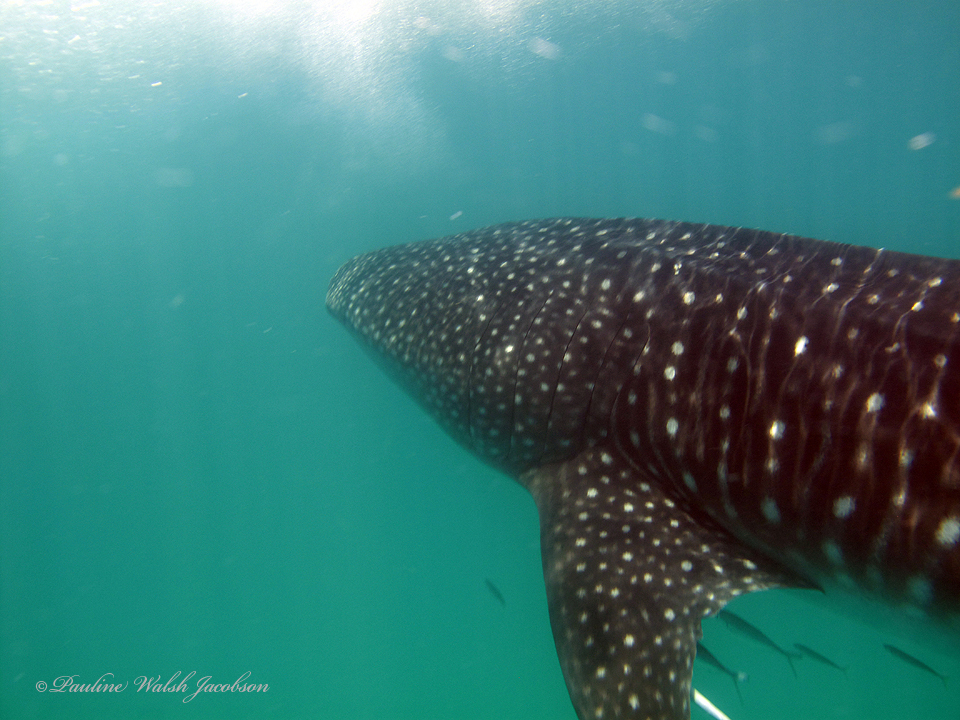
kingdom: Animalia
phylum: Chordata
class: Elasmobranchii
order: Orectolobiformes
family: Rhincodontidae
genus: Rhincodon
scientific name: Rhincodon typus
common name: Whale shark
